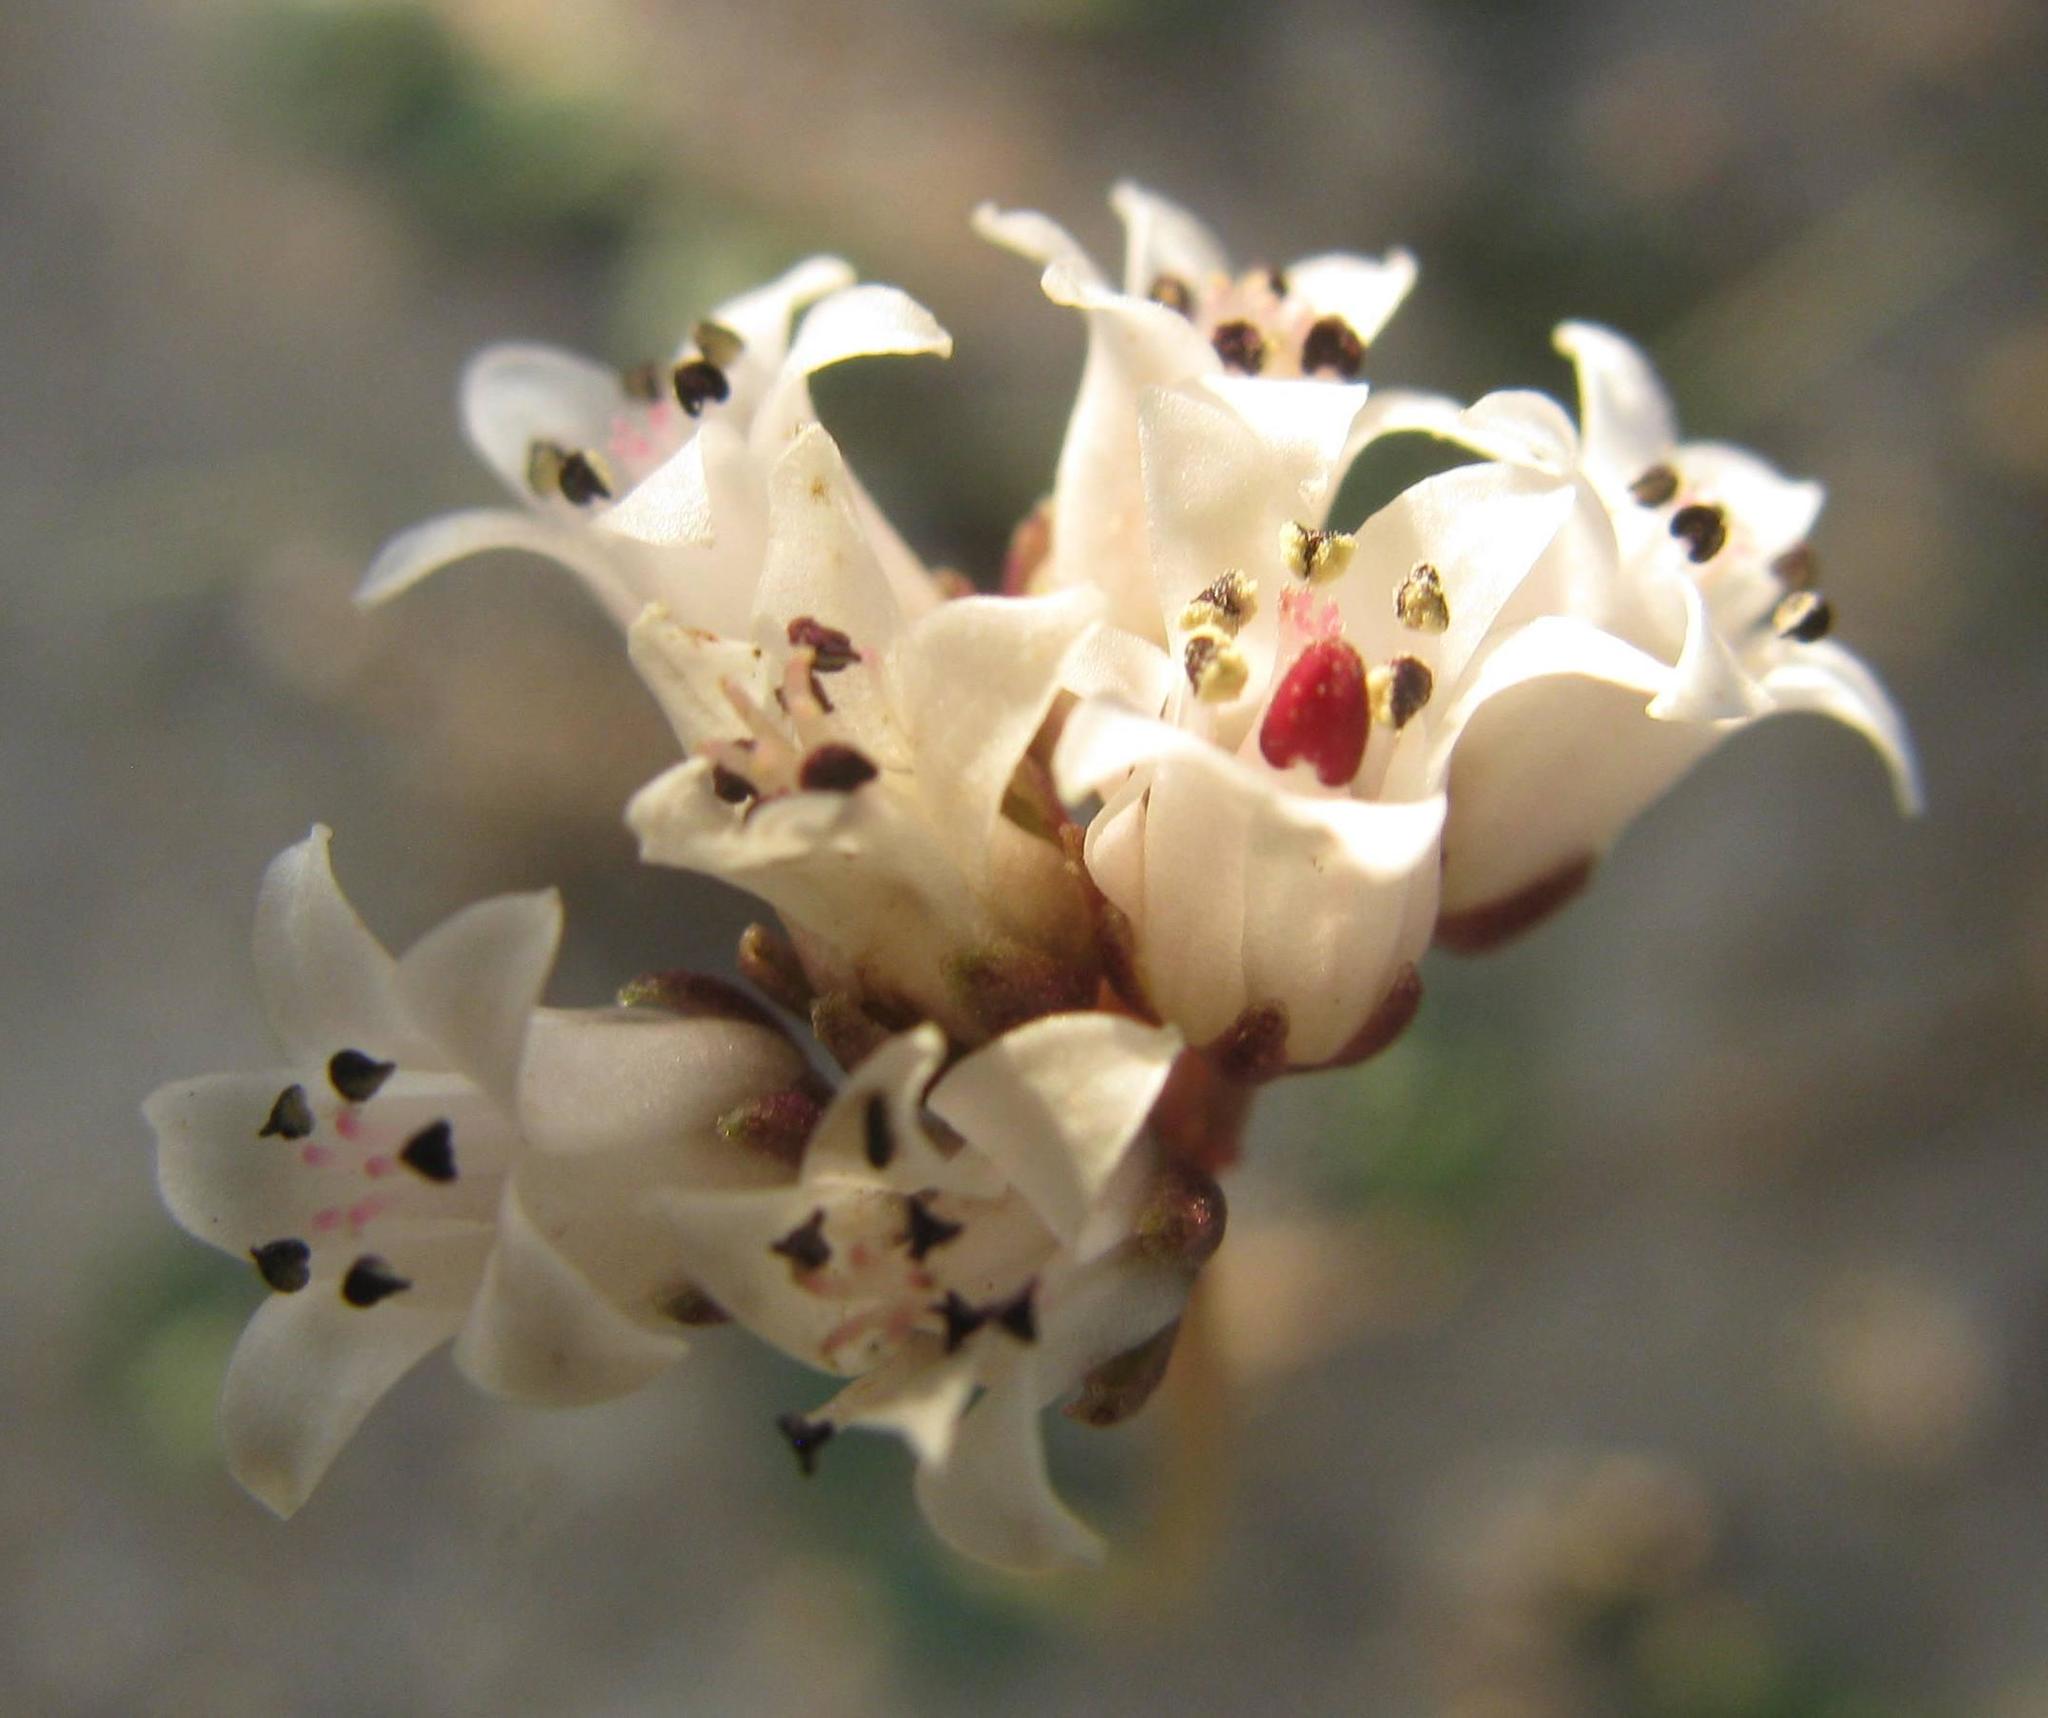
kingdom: Plantae
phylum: Tracheophyta
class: Magnoliopsida
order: Saxifragales
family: Crassulaceae
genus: Crassula
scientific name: Crassula saxifraga
